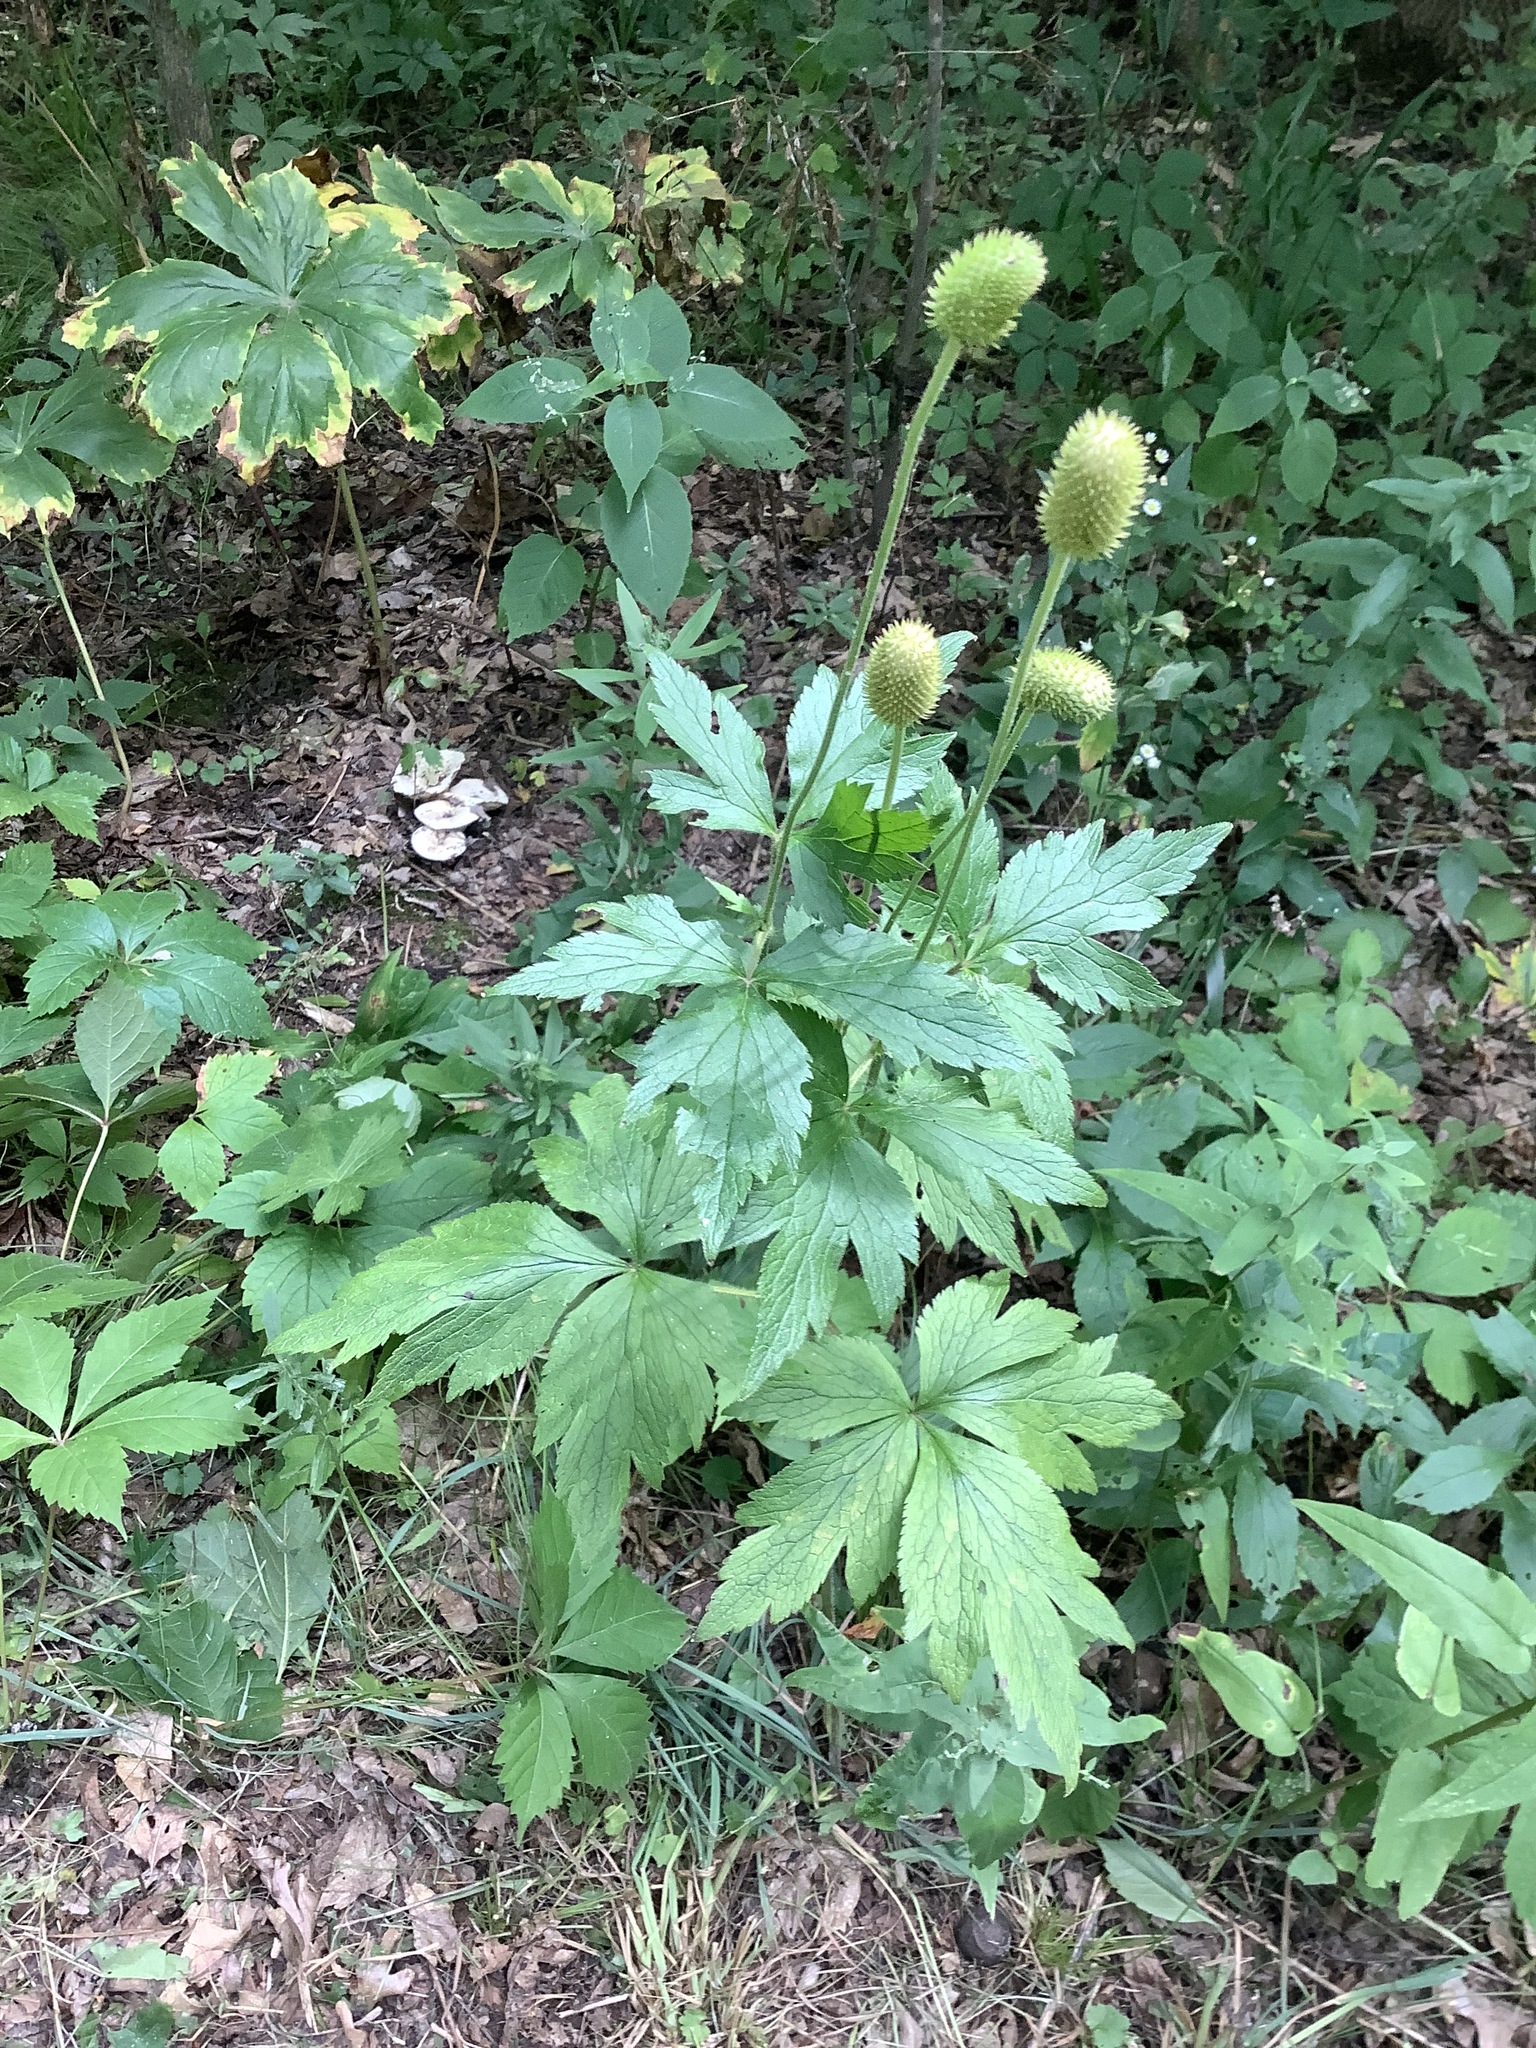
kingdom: Plantae
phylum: Tracheophyta
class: Magnoliopsida
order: Ranunculales
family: Ranunculaceae
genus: Anemone
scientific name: Anemone virginiana
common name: Tall anemone
